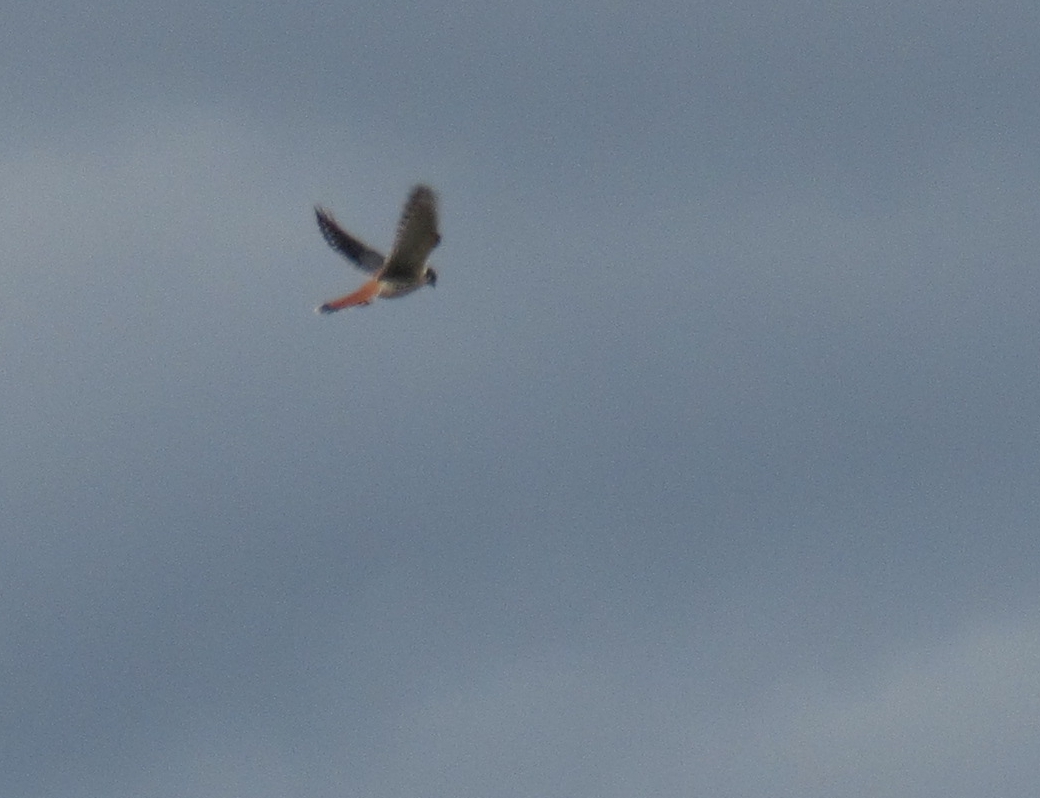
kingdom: Animalia
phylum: Chordata
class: Aves
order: Falconiformes
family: Falconidae
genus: Falco
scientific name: Falco sparverius
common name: American kestrel
